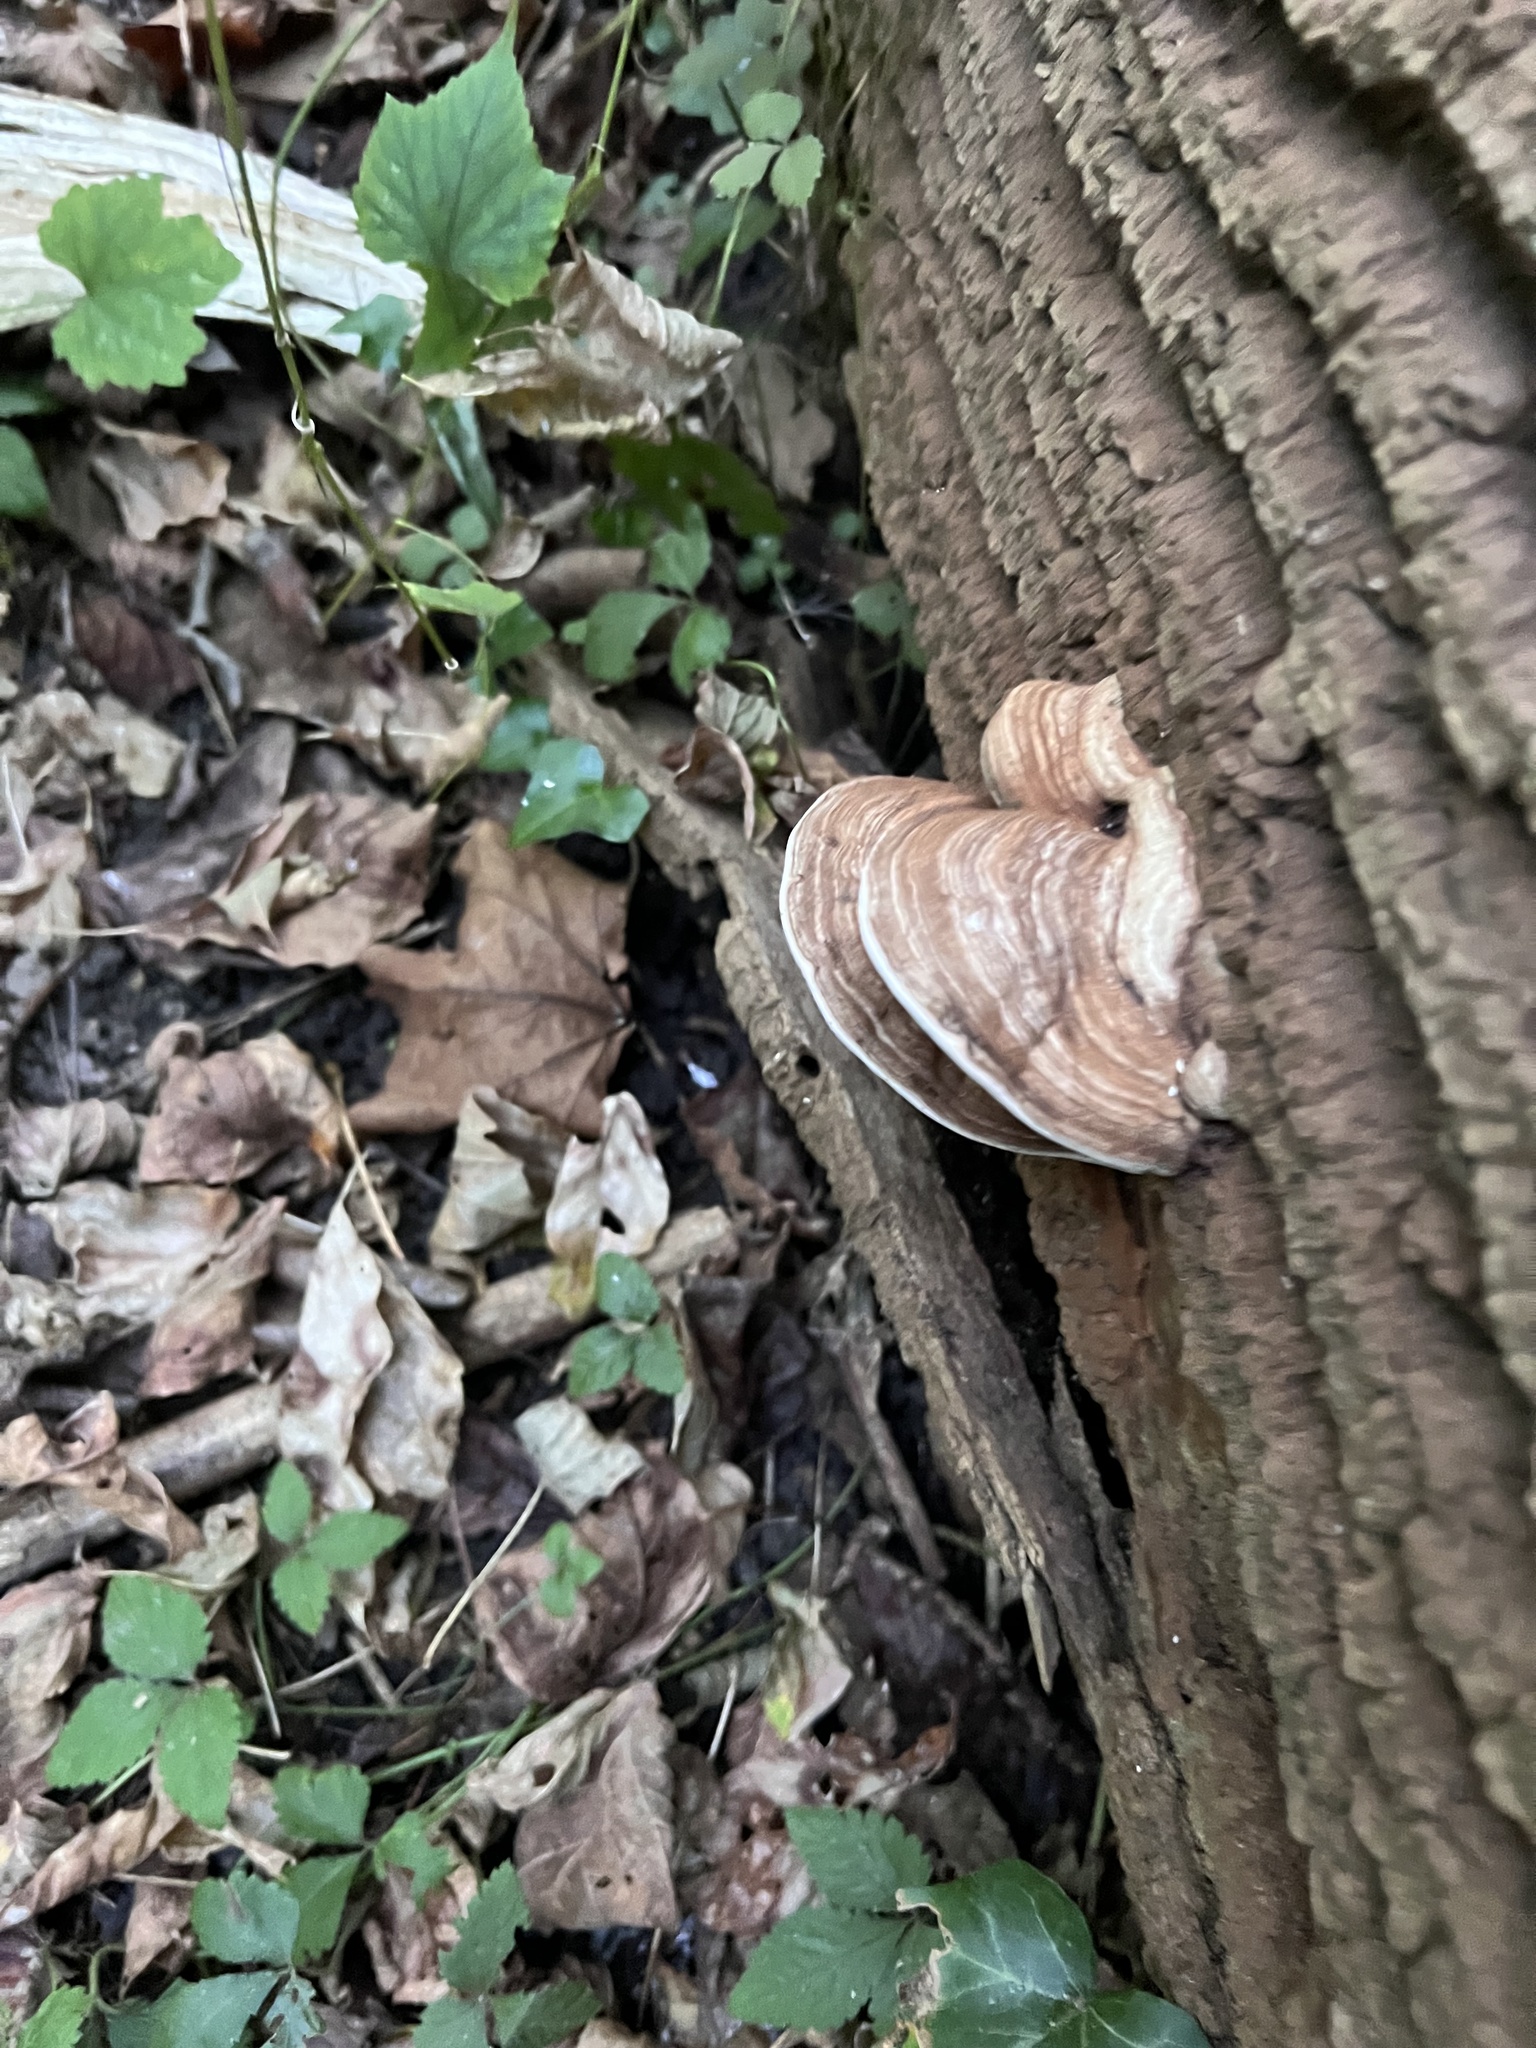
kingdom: Fungi
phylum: Basidiomycota
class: Agaricomycetes
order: Polyporales
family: Polyporaceae
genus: Ganoderma
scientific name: Ganoderma applanatum
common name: Artist's bracket
